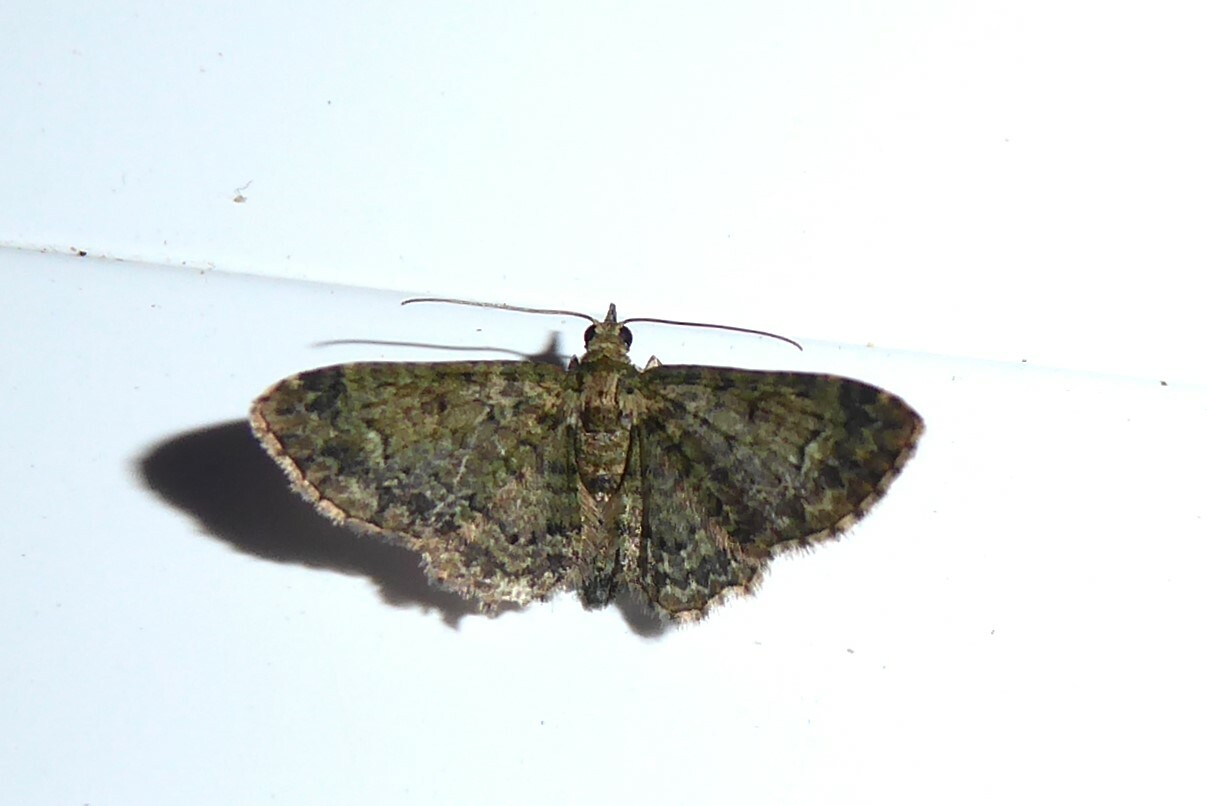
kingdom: Animalia
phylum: Arthropoda
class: Insecta
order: Lepidoptera
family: Geometridae
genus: Pasiphilodes
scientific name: Pasiphilodes testulata
